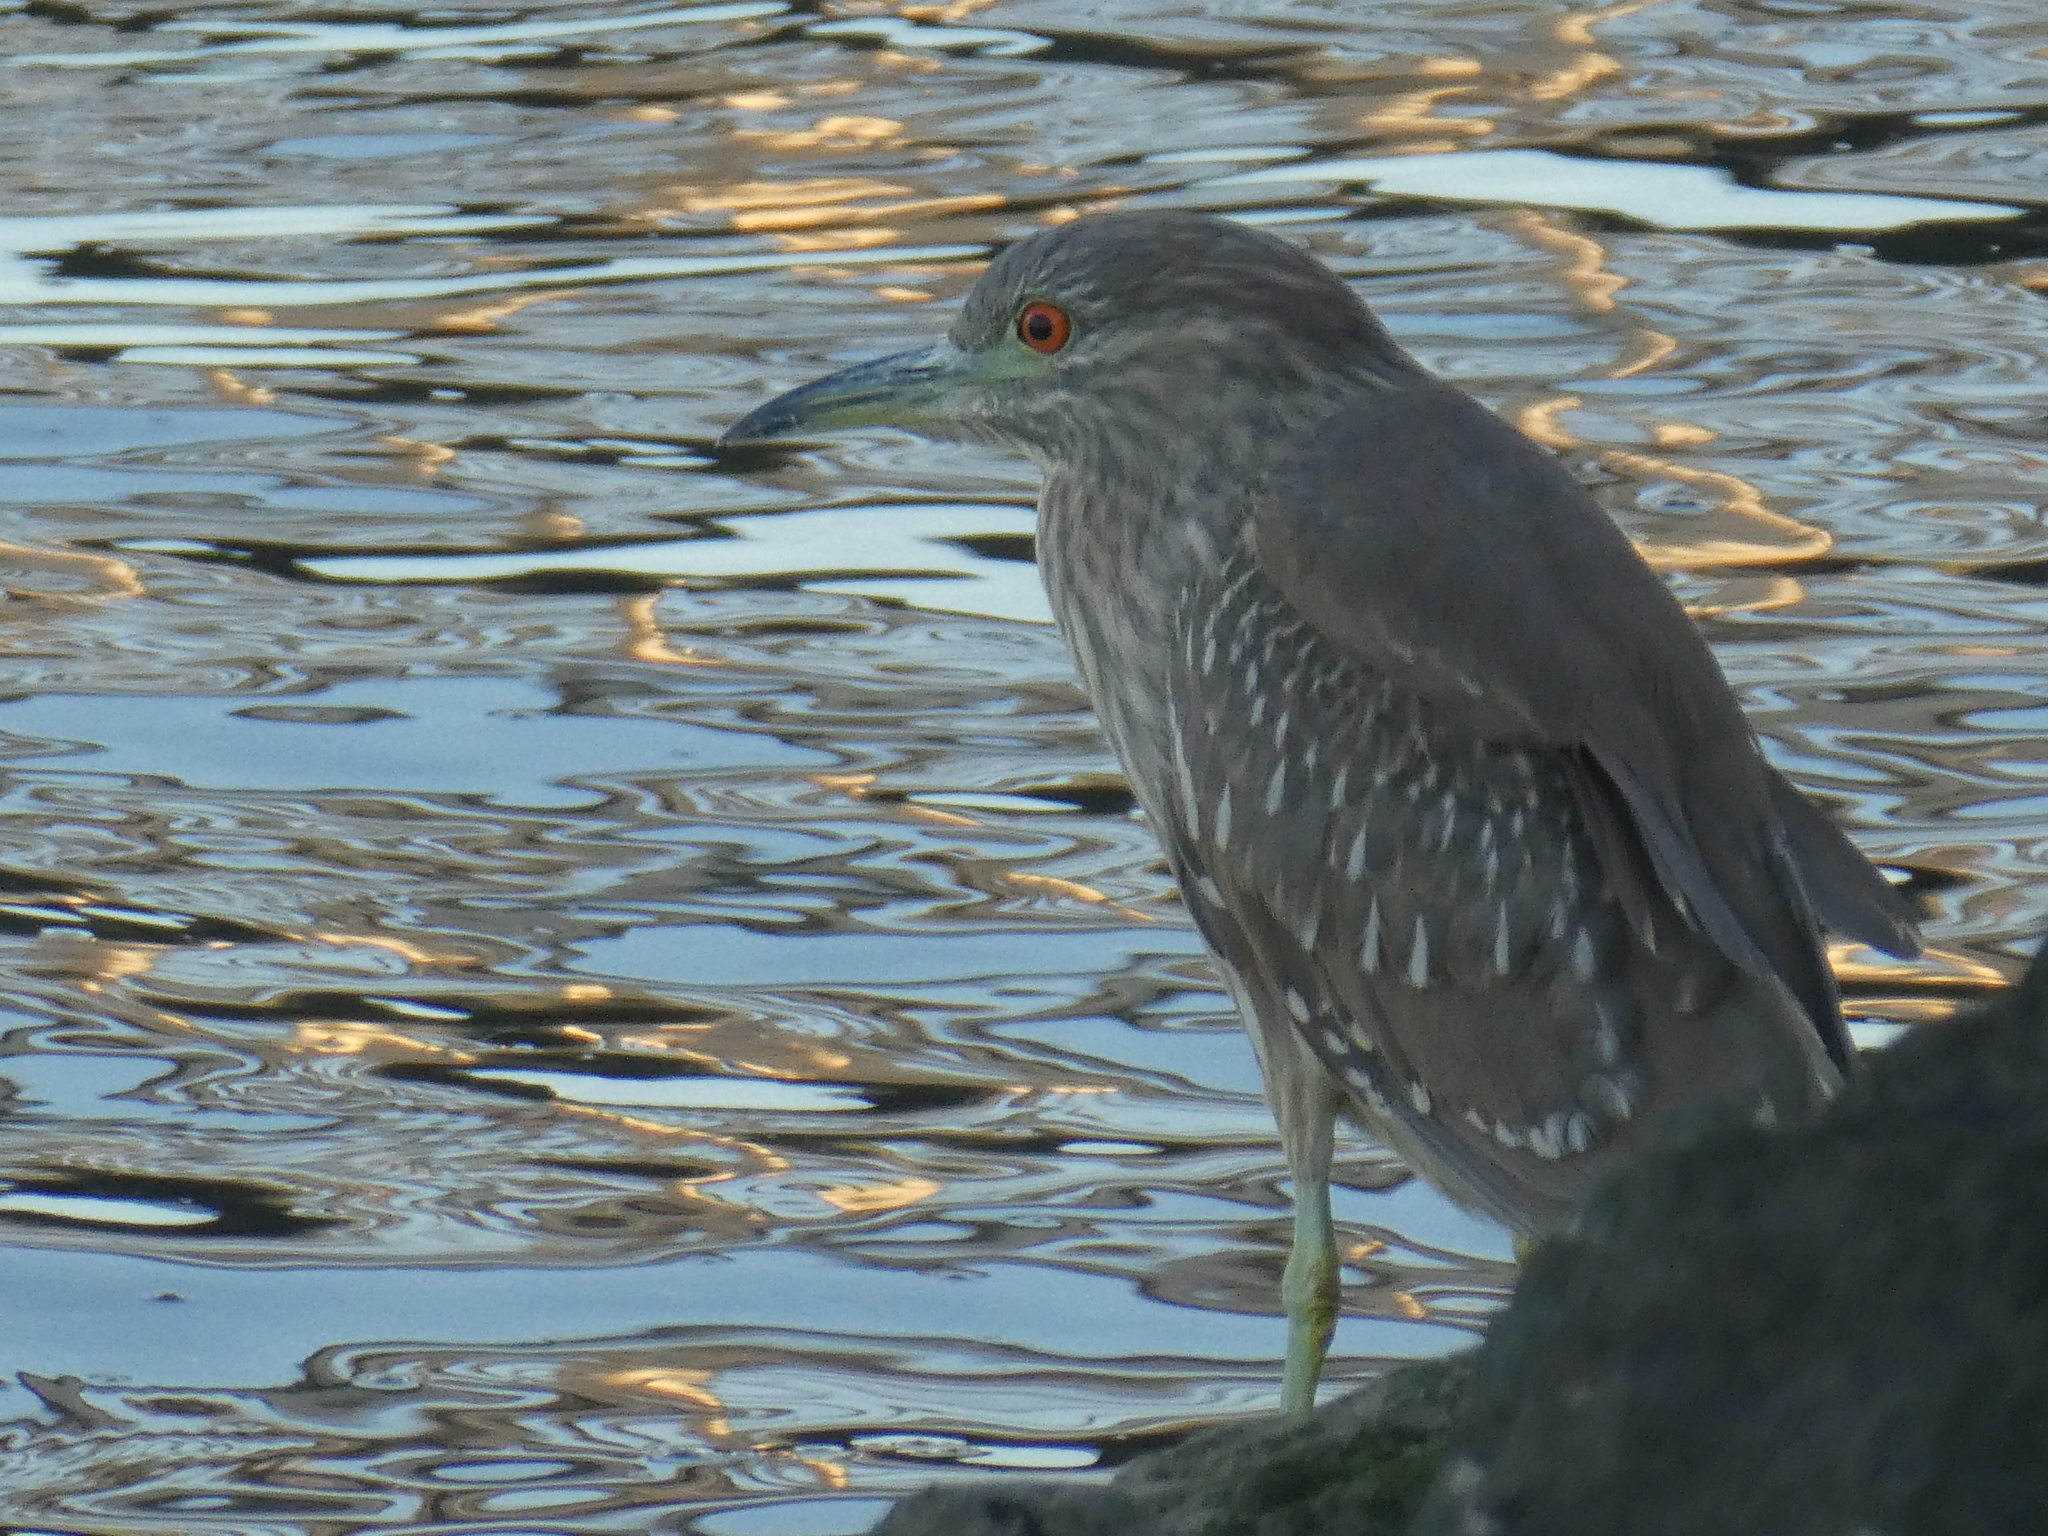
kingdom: Animalia
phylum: Chordata
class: Aves
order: Pelecaniformes
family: Ardeidae
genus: Nycticorax
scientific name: Nycticorax nycticorax
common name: Black-crowned night heron
